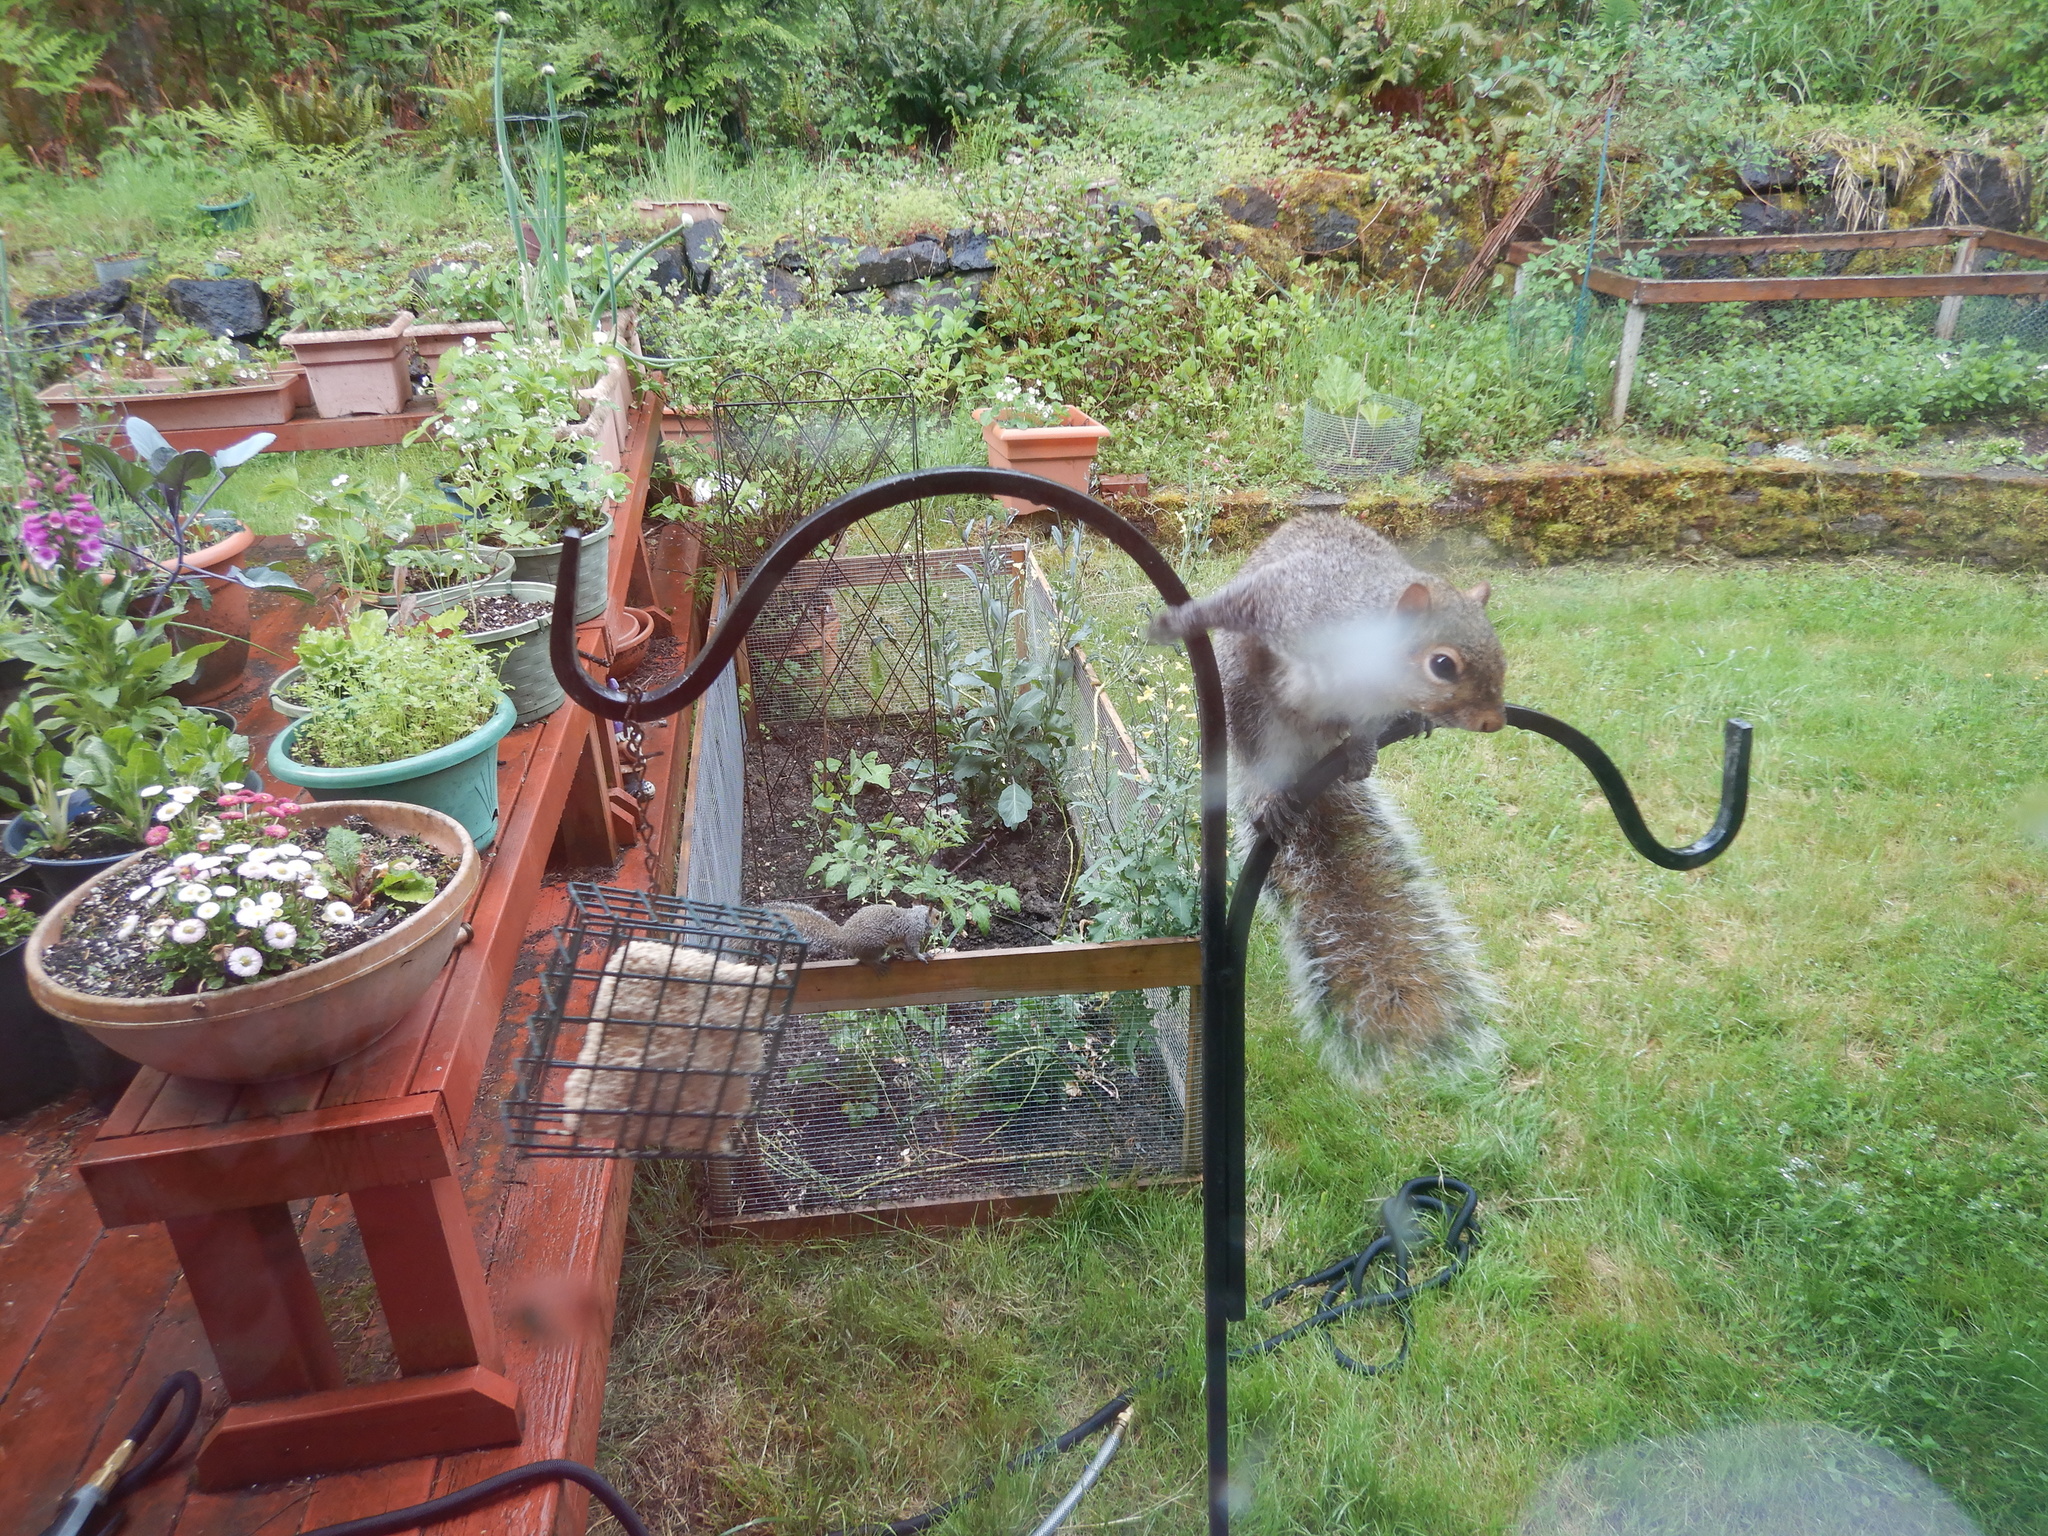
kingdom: Animalia
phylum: Chordata
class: Mammalia
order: Rodentia
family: Sciuridae
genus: Sciurus
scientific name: Sciurus carolinensis
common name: Eastern gray squirrel
